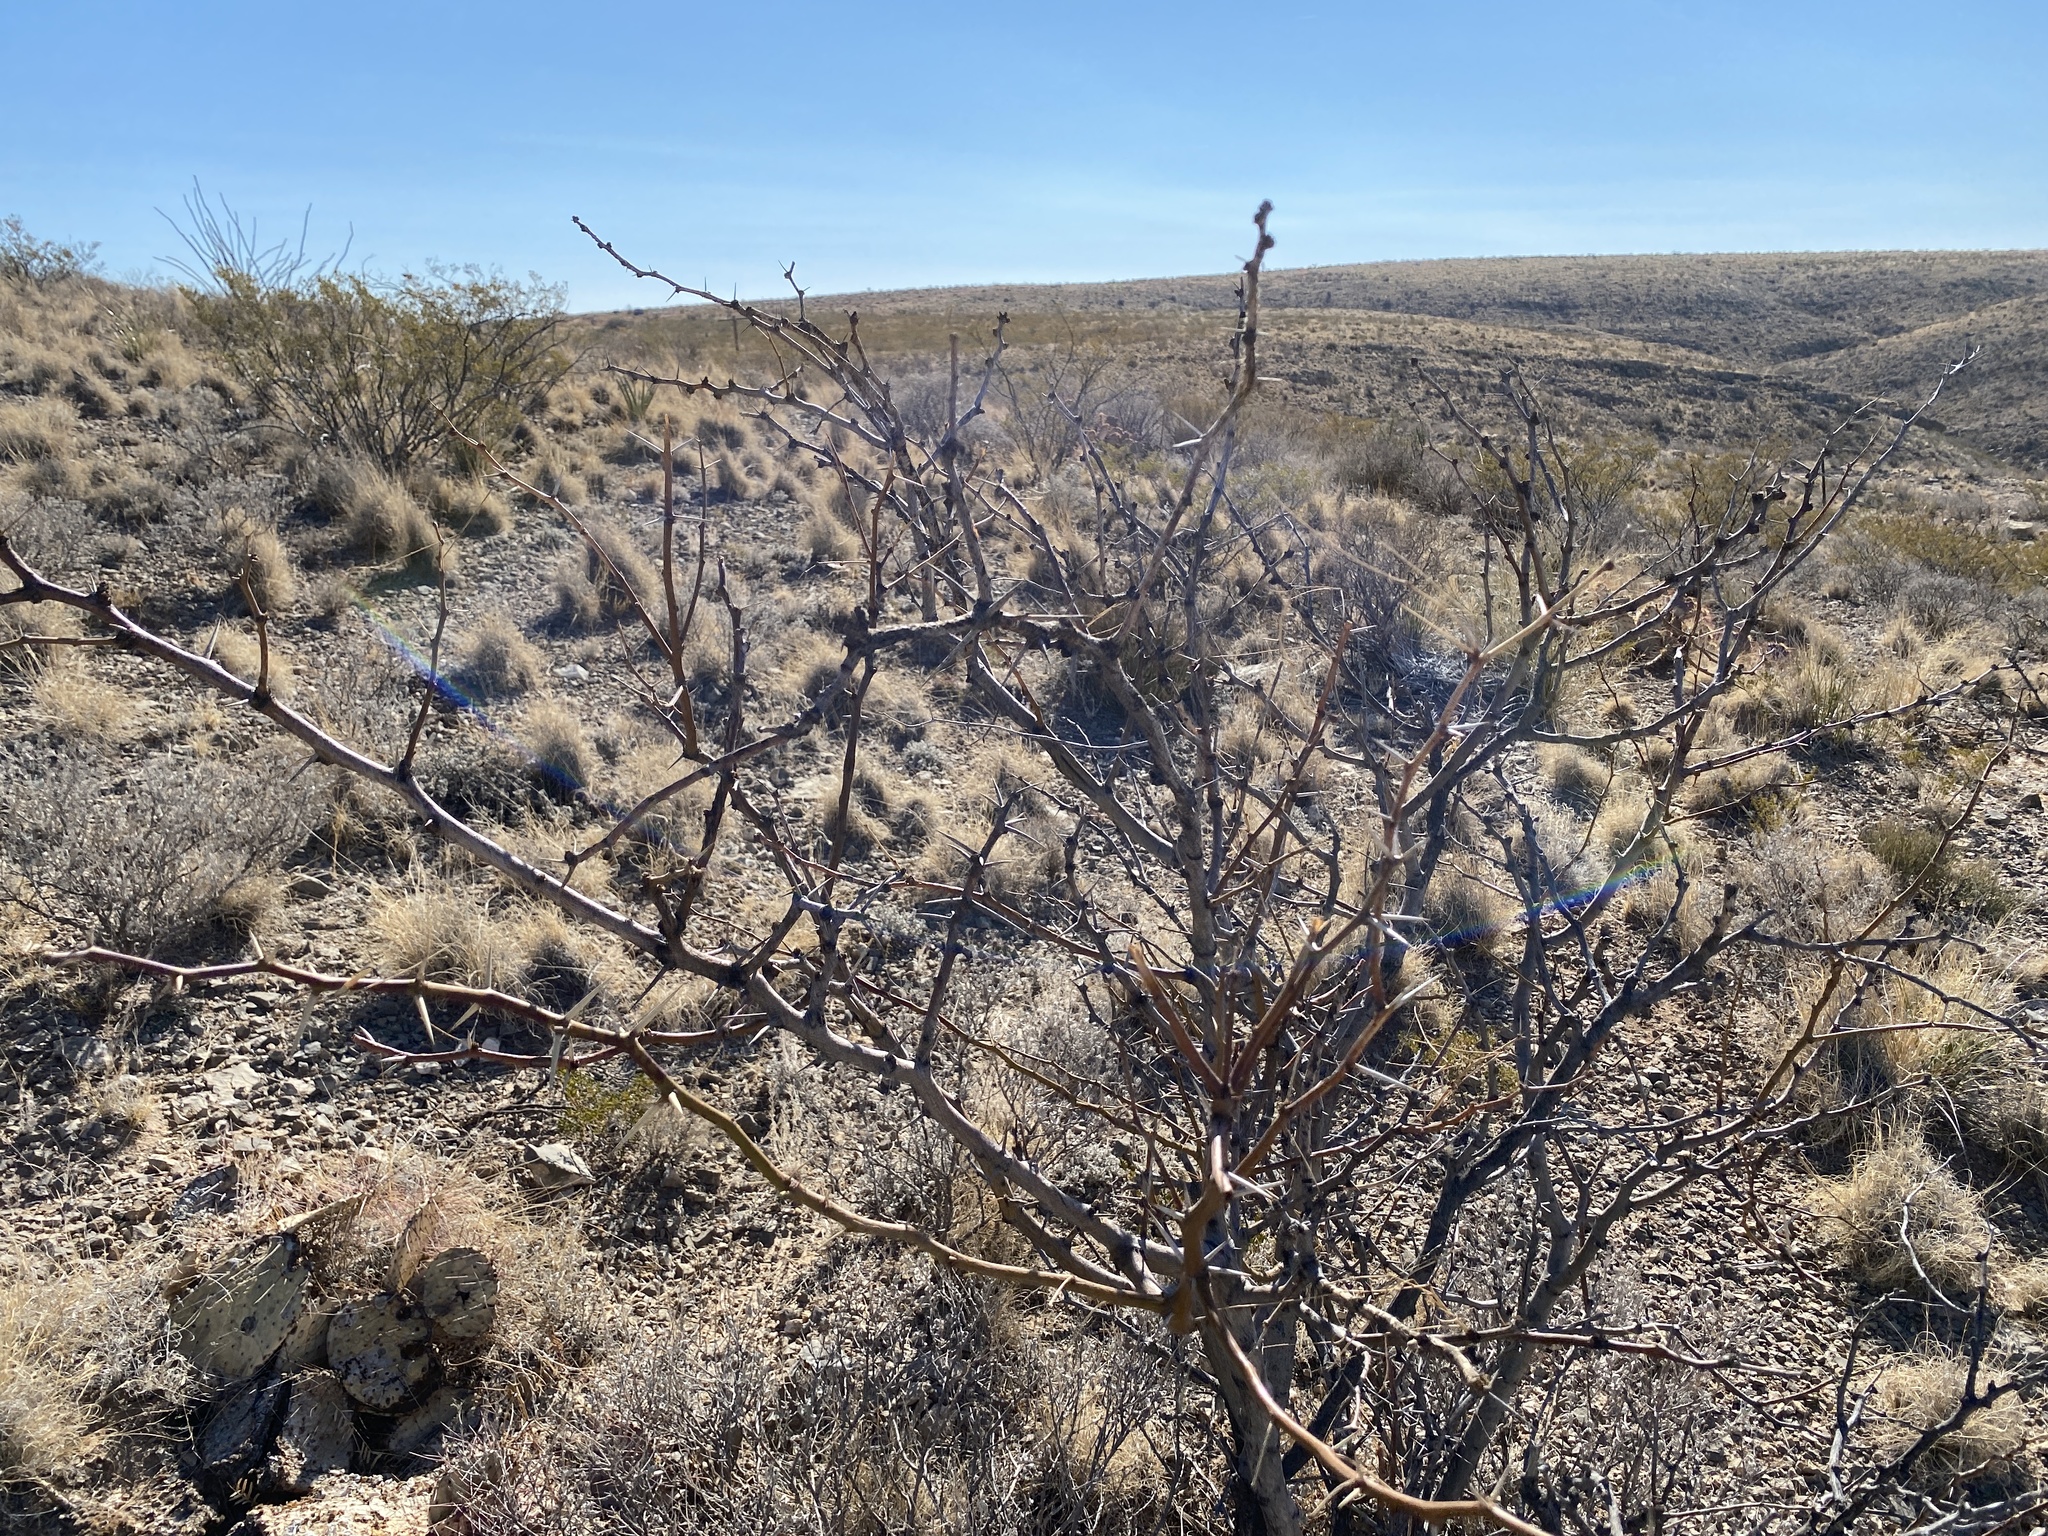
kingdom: Plantae
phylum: Tracheophyta
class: Magnoliopsida
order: Fabales
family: Fabaceae
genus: Prosopis
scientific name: Prosopis glandulosa
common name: Honey mesquite
